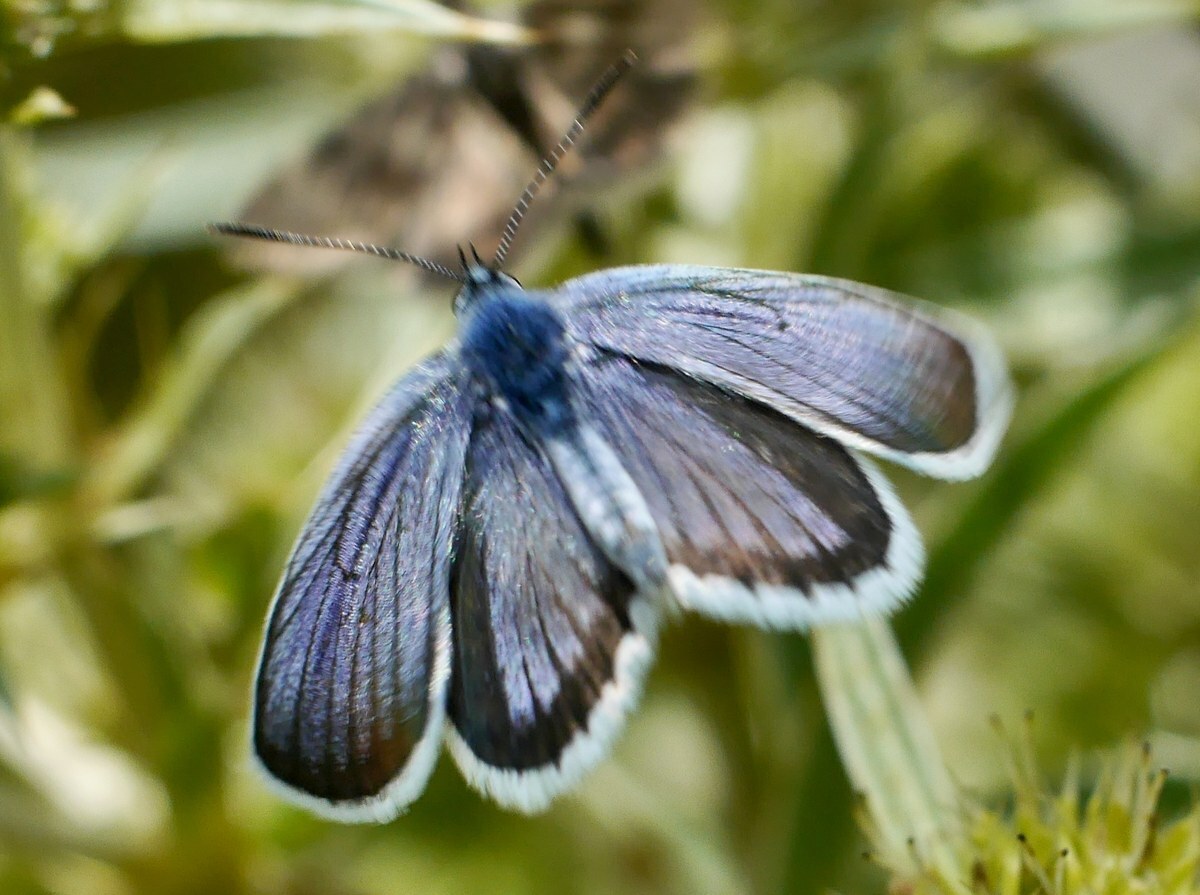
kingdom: Animalia
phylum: Arthropoda
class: Insecta
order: Lepidoptera
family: Lycaenidae
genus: Plebejus
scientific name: Plebejus argus
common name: Silver-studded blue
